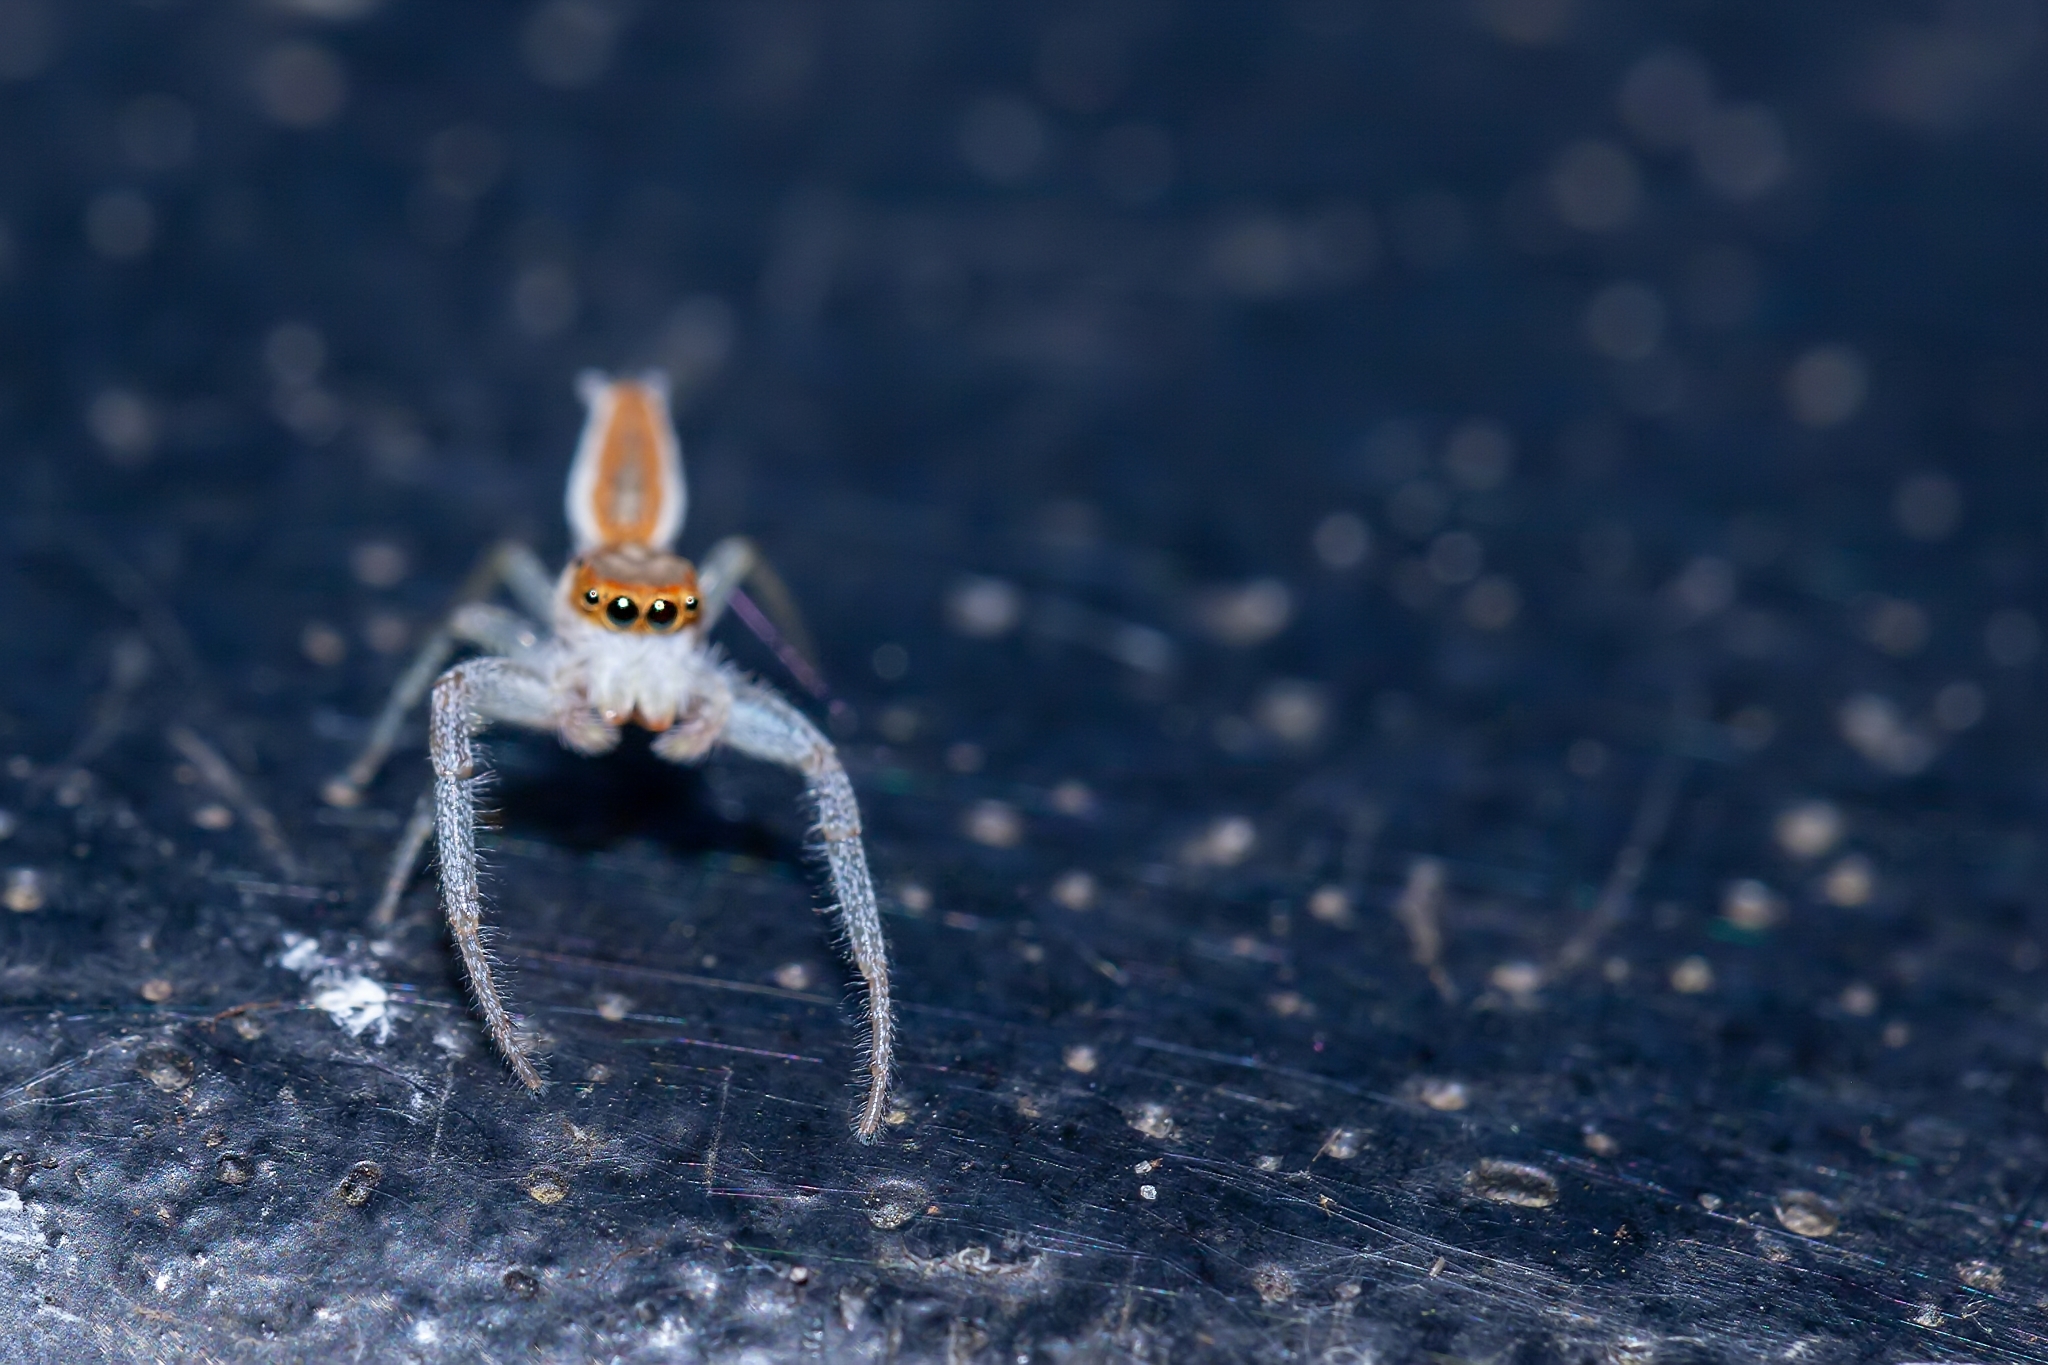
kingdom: Animalia
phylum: Arthropoda
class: Arachnida
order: Araneae
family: Salticidae
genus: Hentzia
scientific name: Hentzia mitrata
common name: White-jawed jumping spider
